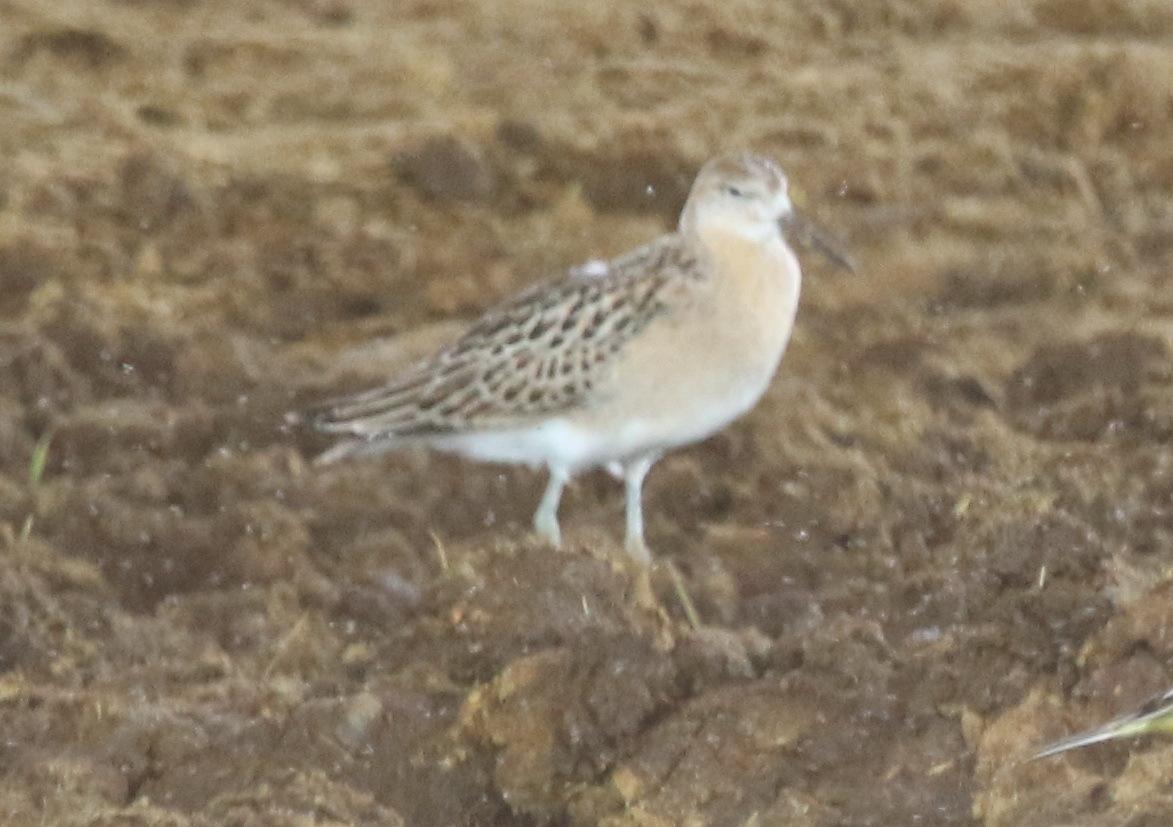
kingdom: Animalia
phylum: Chordata
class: Aves
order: Charadriiformes
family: Scolopacidae
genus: Calidris
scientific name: Calidris pugnax
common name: Ruff
